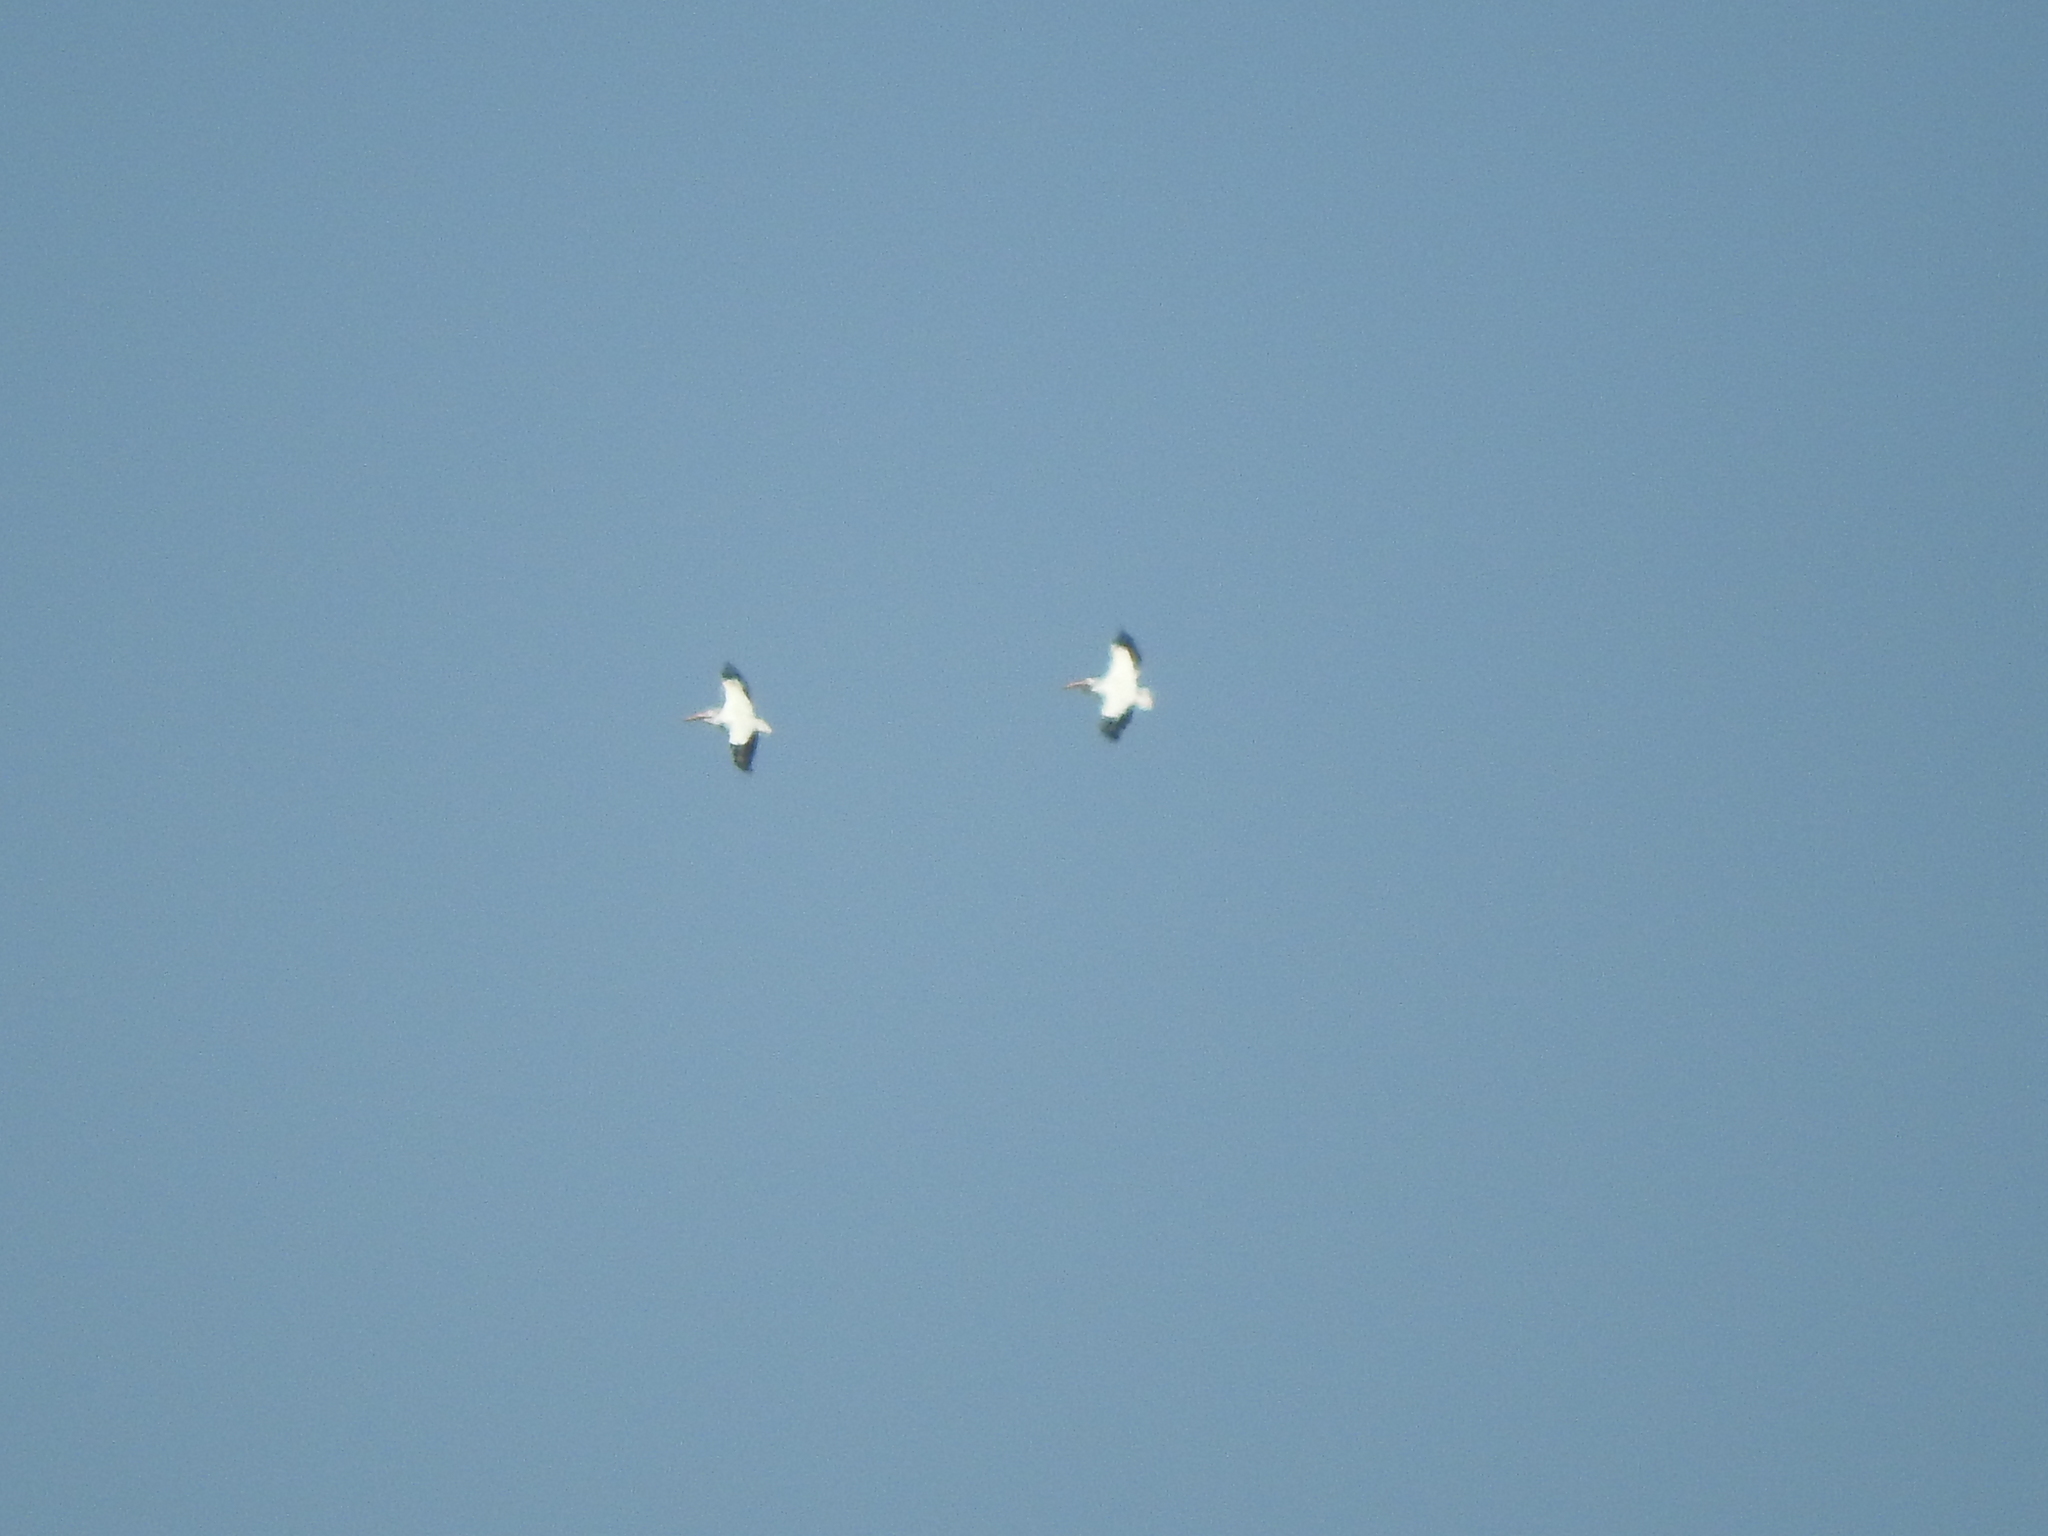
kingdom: Animalia
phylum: Chordata
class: Aves
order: Pelecaniformes
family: Pelecanidae
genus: Pelecanus
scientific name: Pelecanus erythrorhynchos
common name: American white pelican
